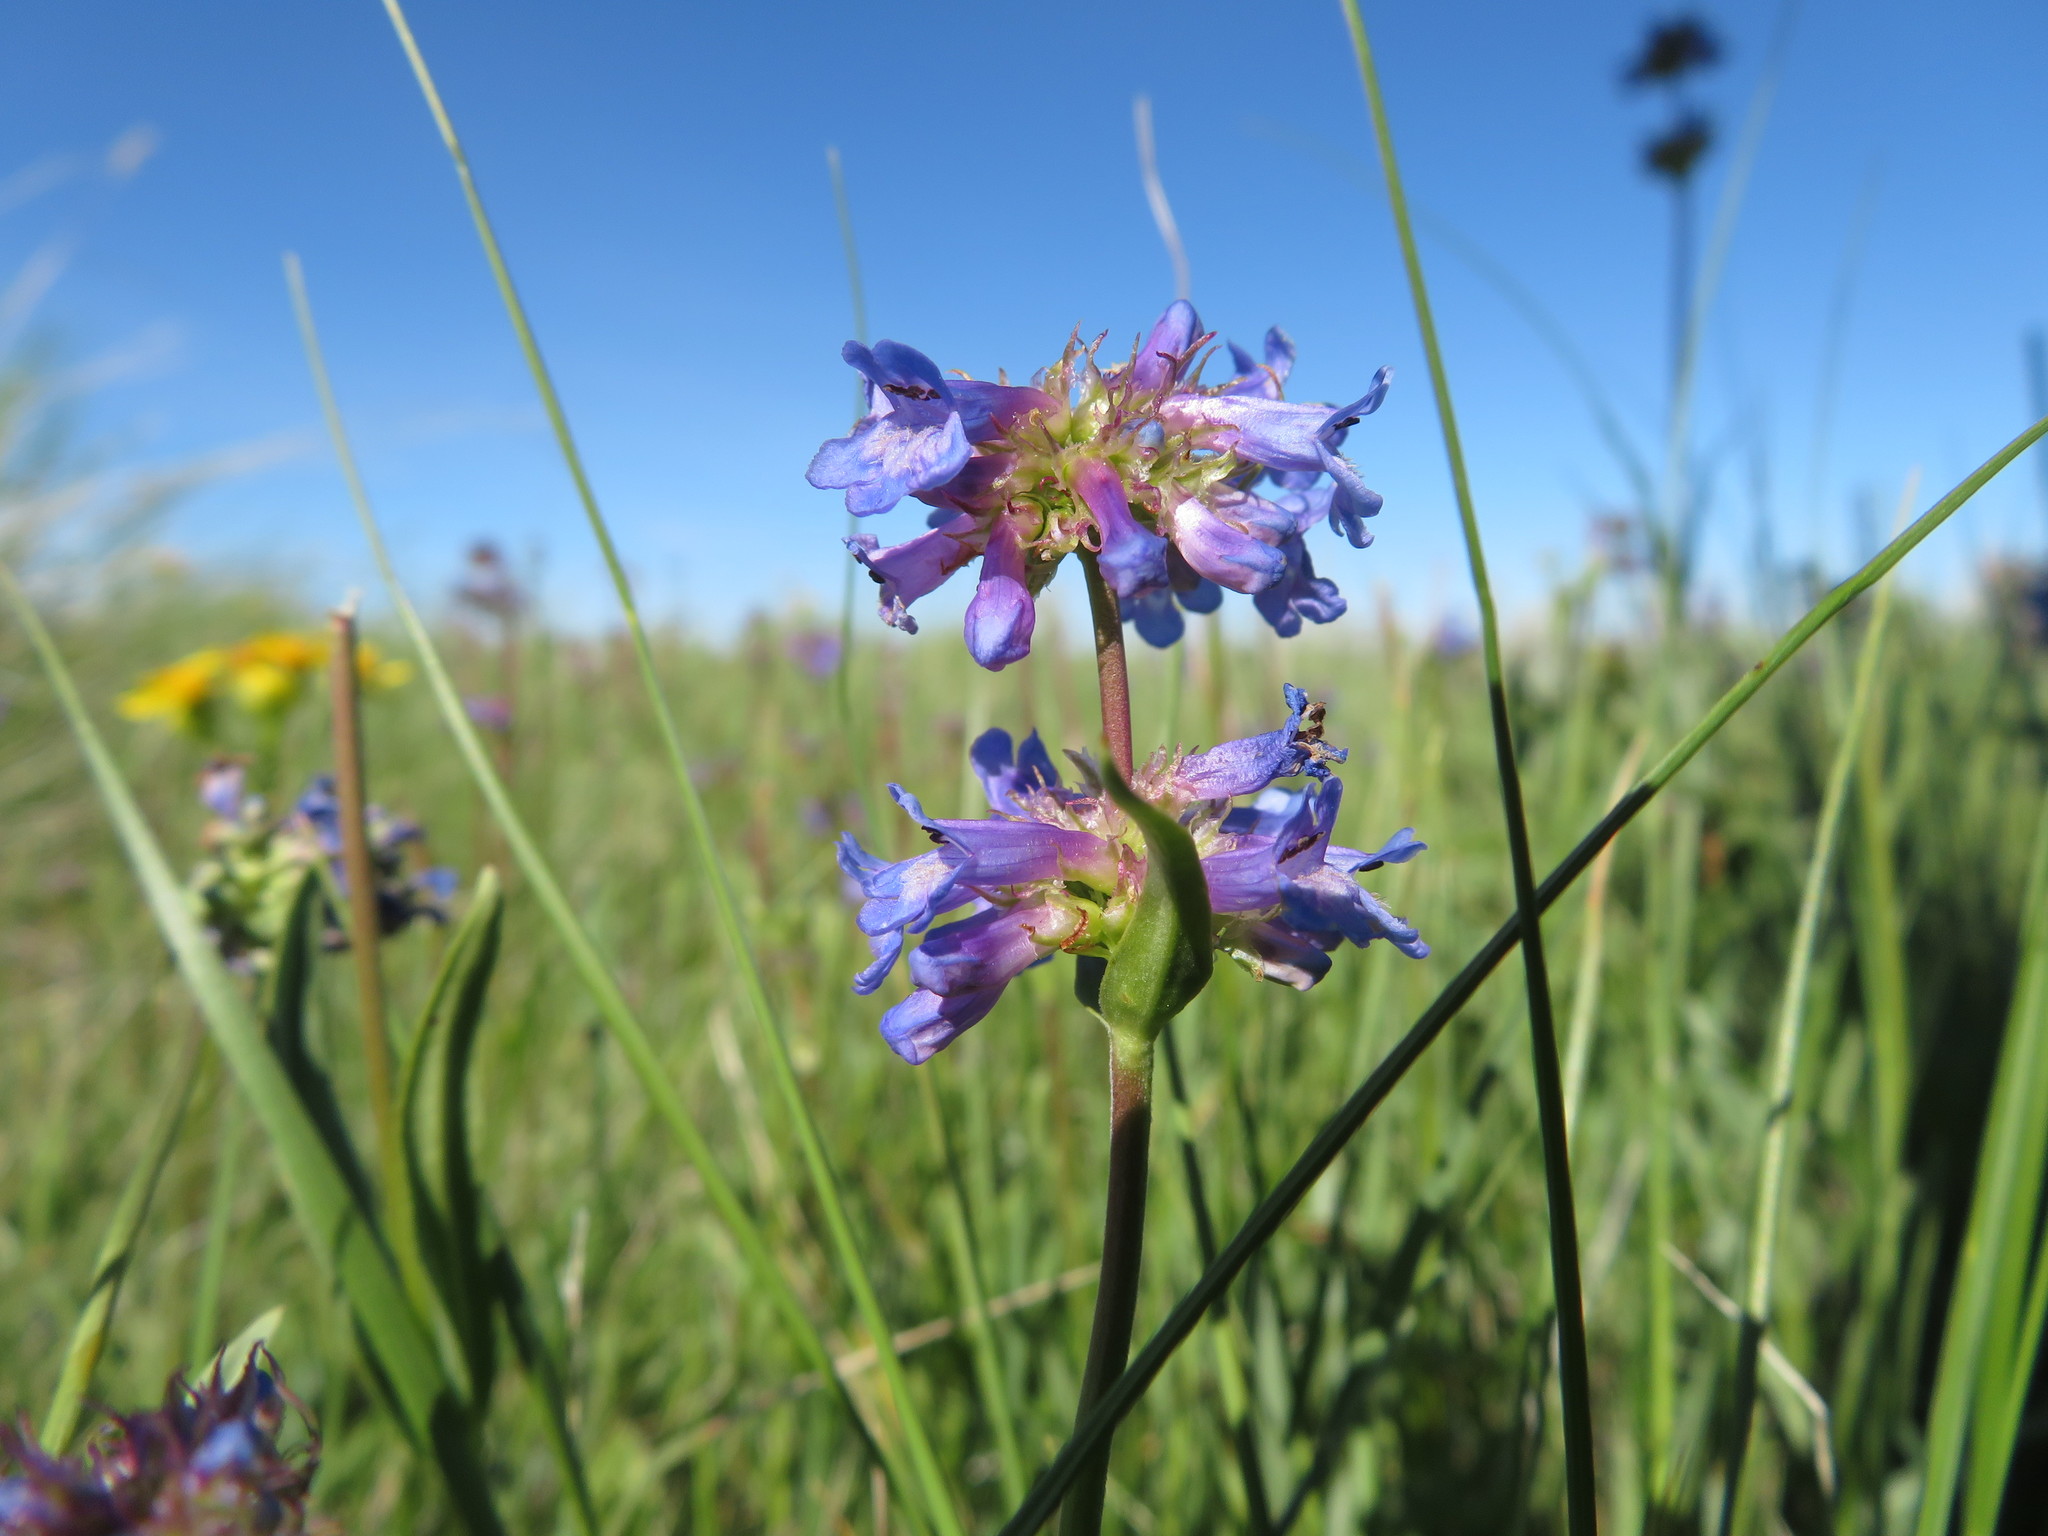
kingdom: Plantae
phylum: Tracheophyta
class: Magnoliopsida
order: Lamiales
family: Plantaginaceae
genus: Penstemon
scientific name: Penstemon procerus
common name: Small-flower penstemon
